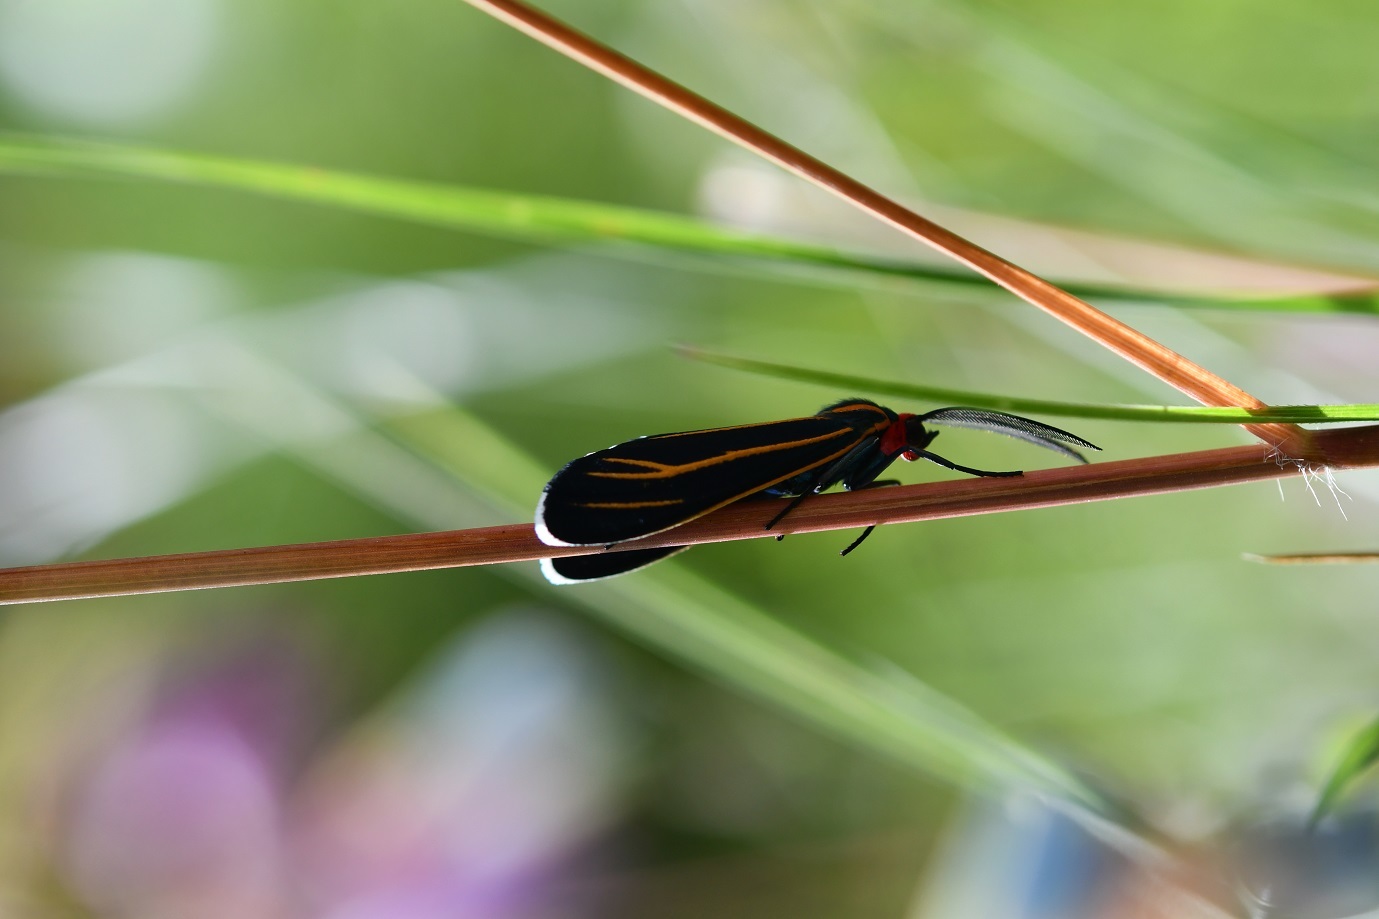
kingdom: Animalia
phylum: Arthropoda
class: Insecta
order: Lepidoptera
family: Erebidae
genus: Ctenucha
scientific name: Ctenucha venosa
